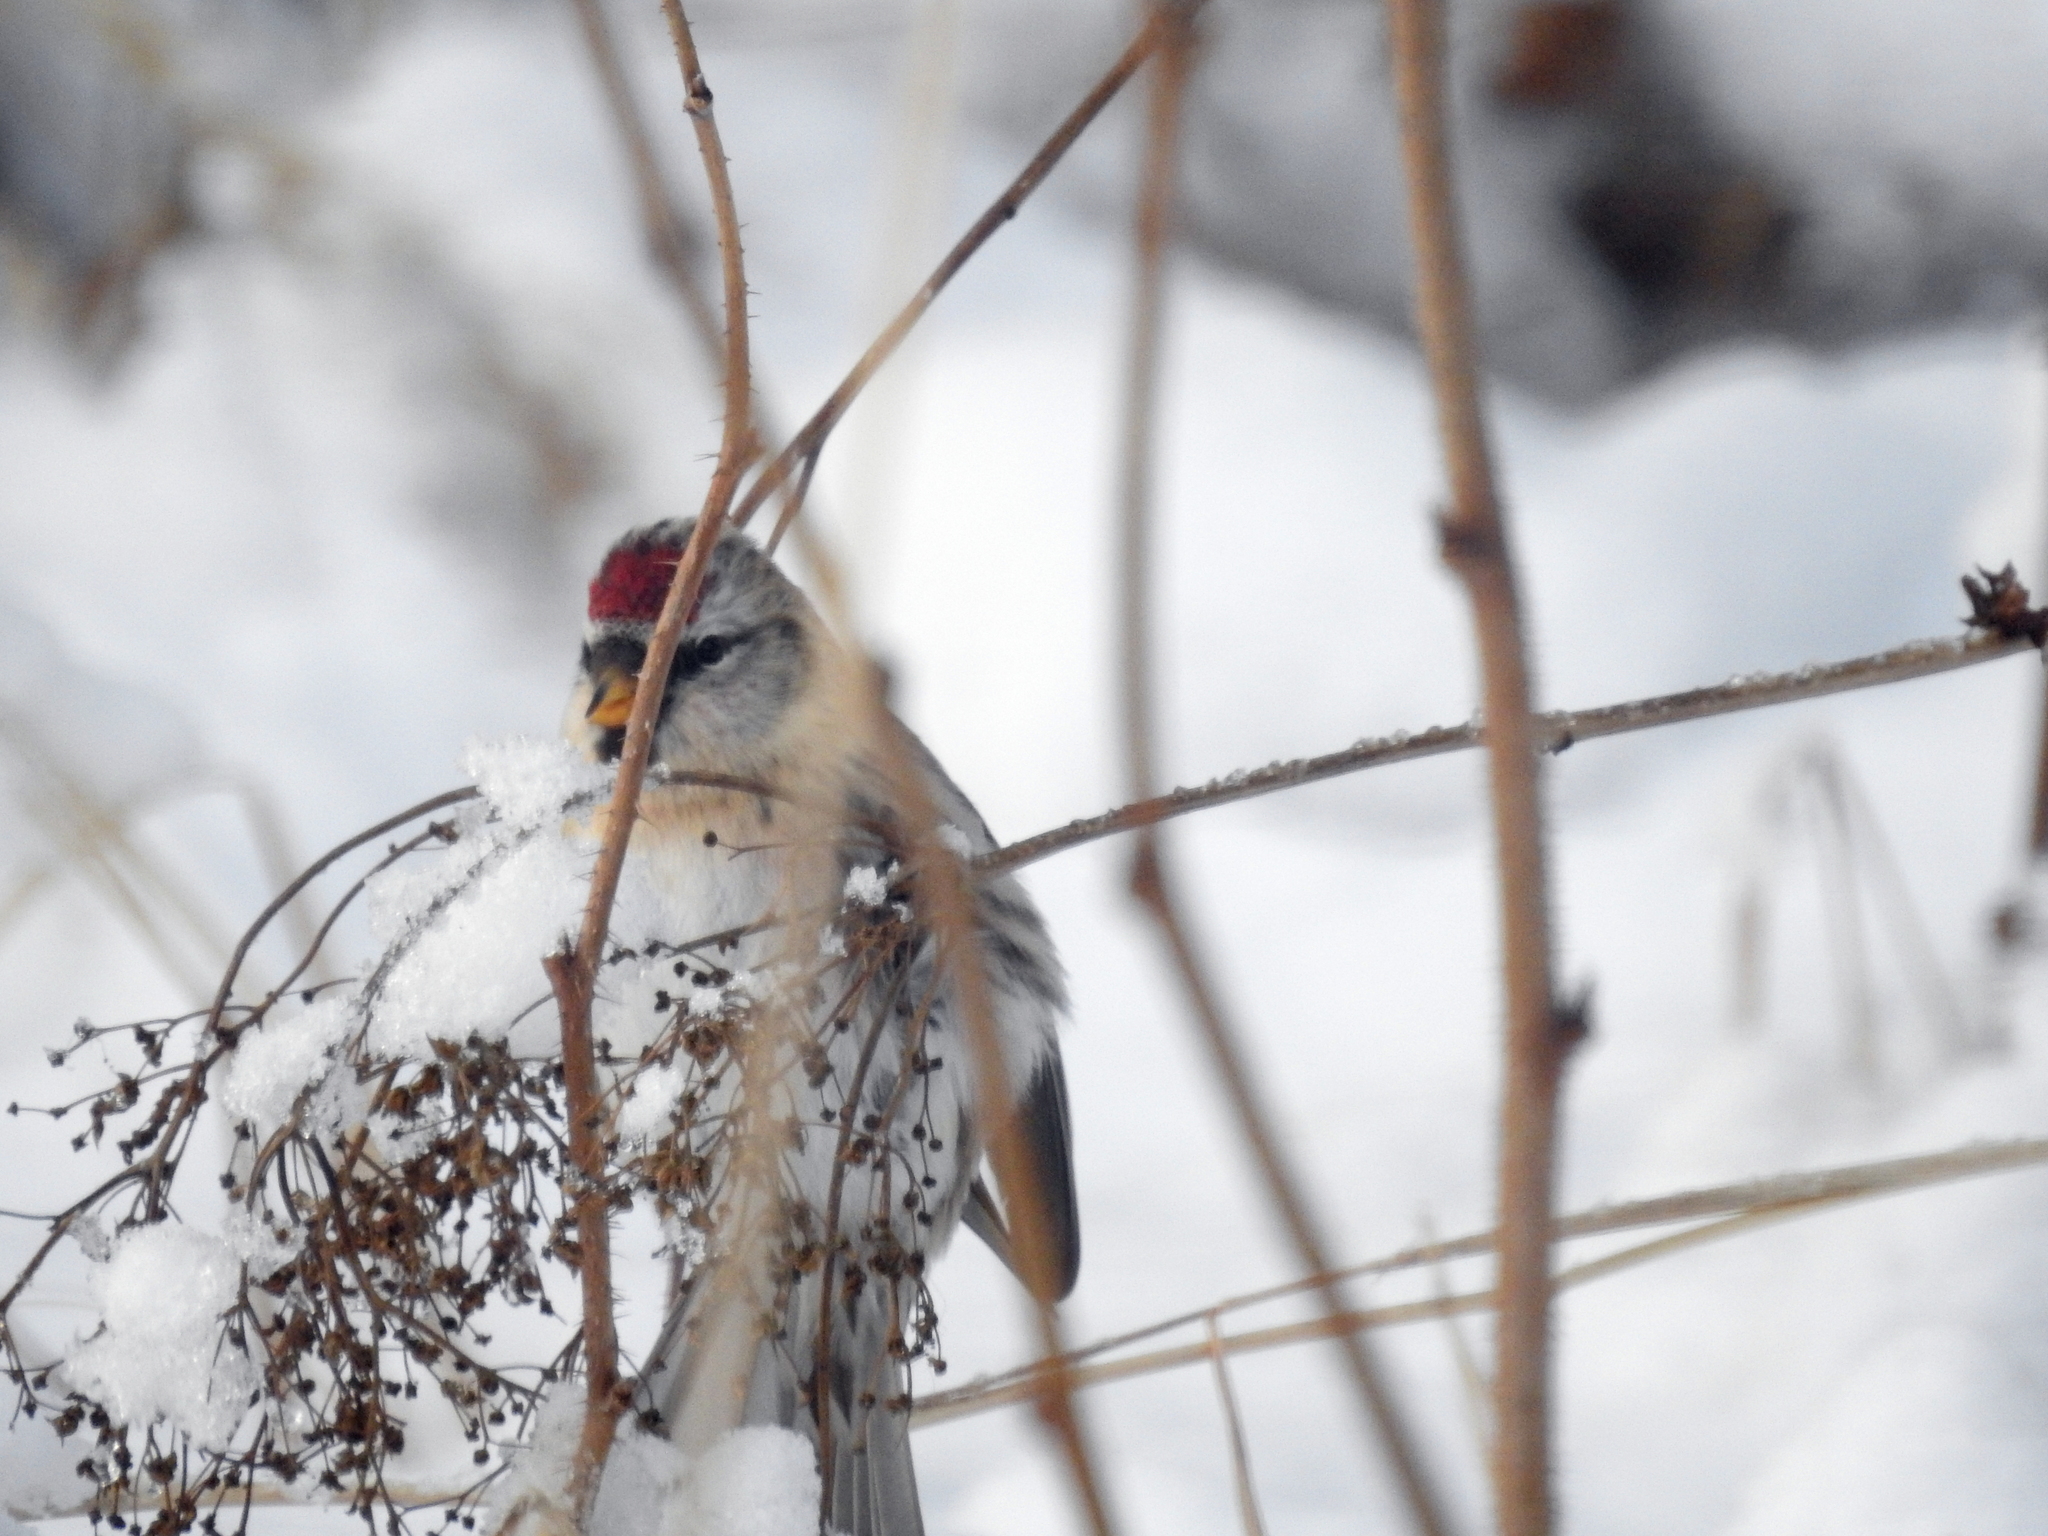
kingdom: Animalia
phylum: Chordata
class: Aves
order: Passeriformes
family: Fringillidae
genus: Acanthis
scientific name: Acanthis flammea
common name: Common redpoll
